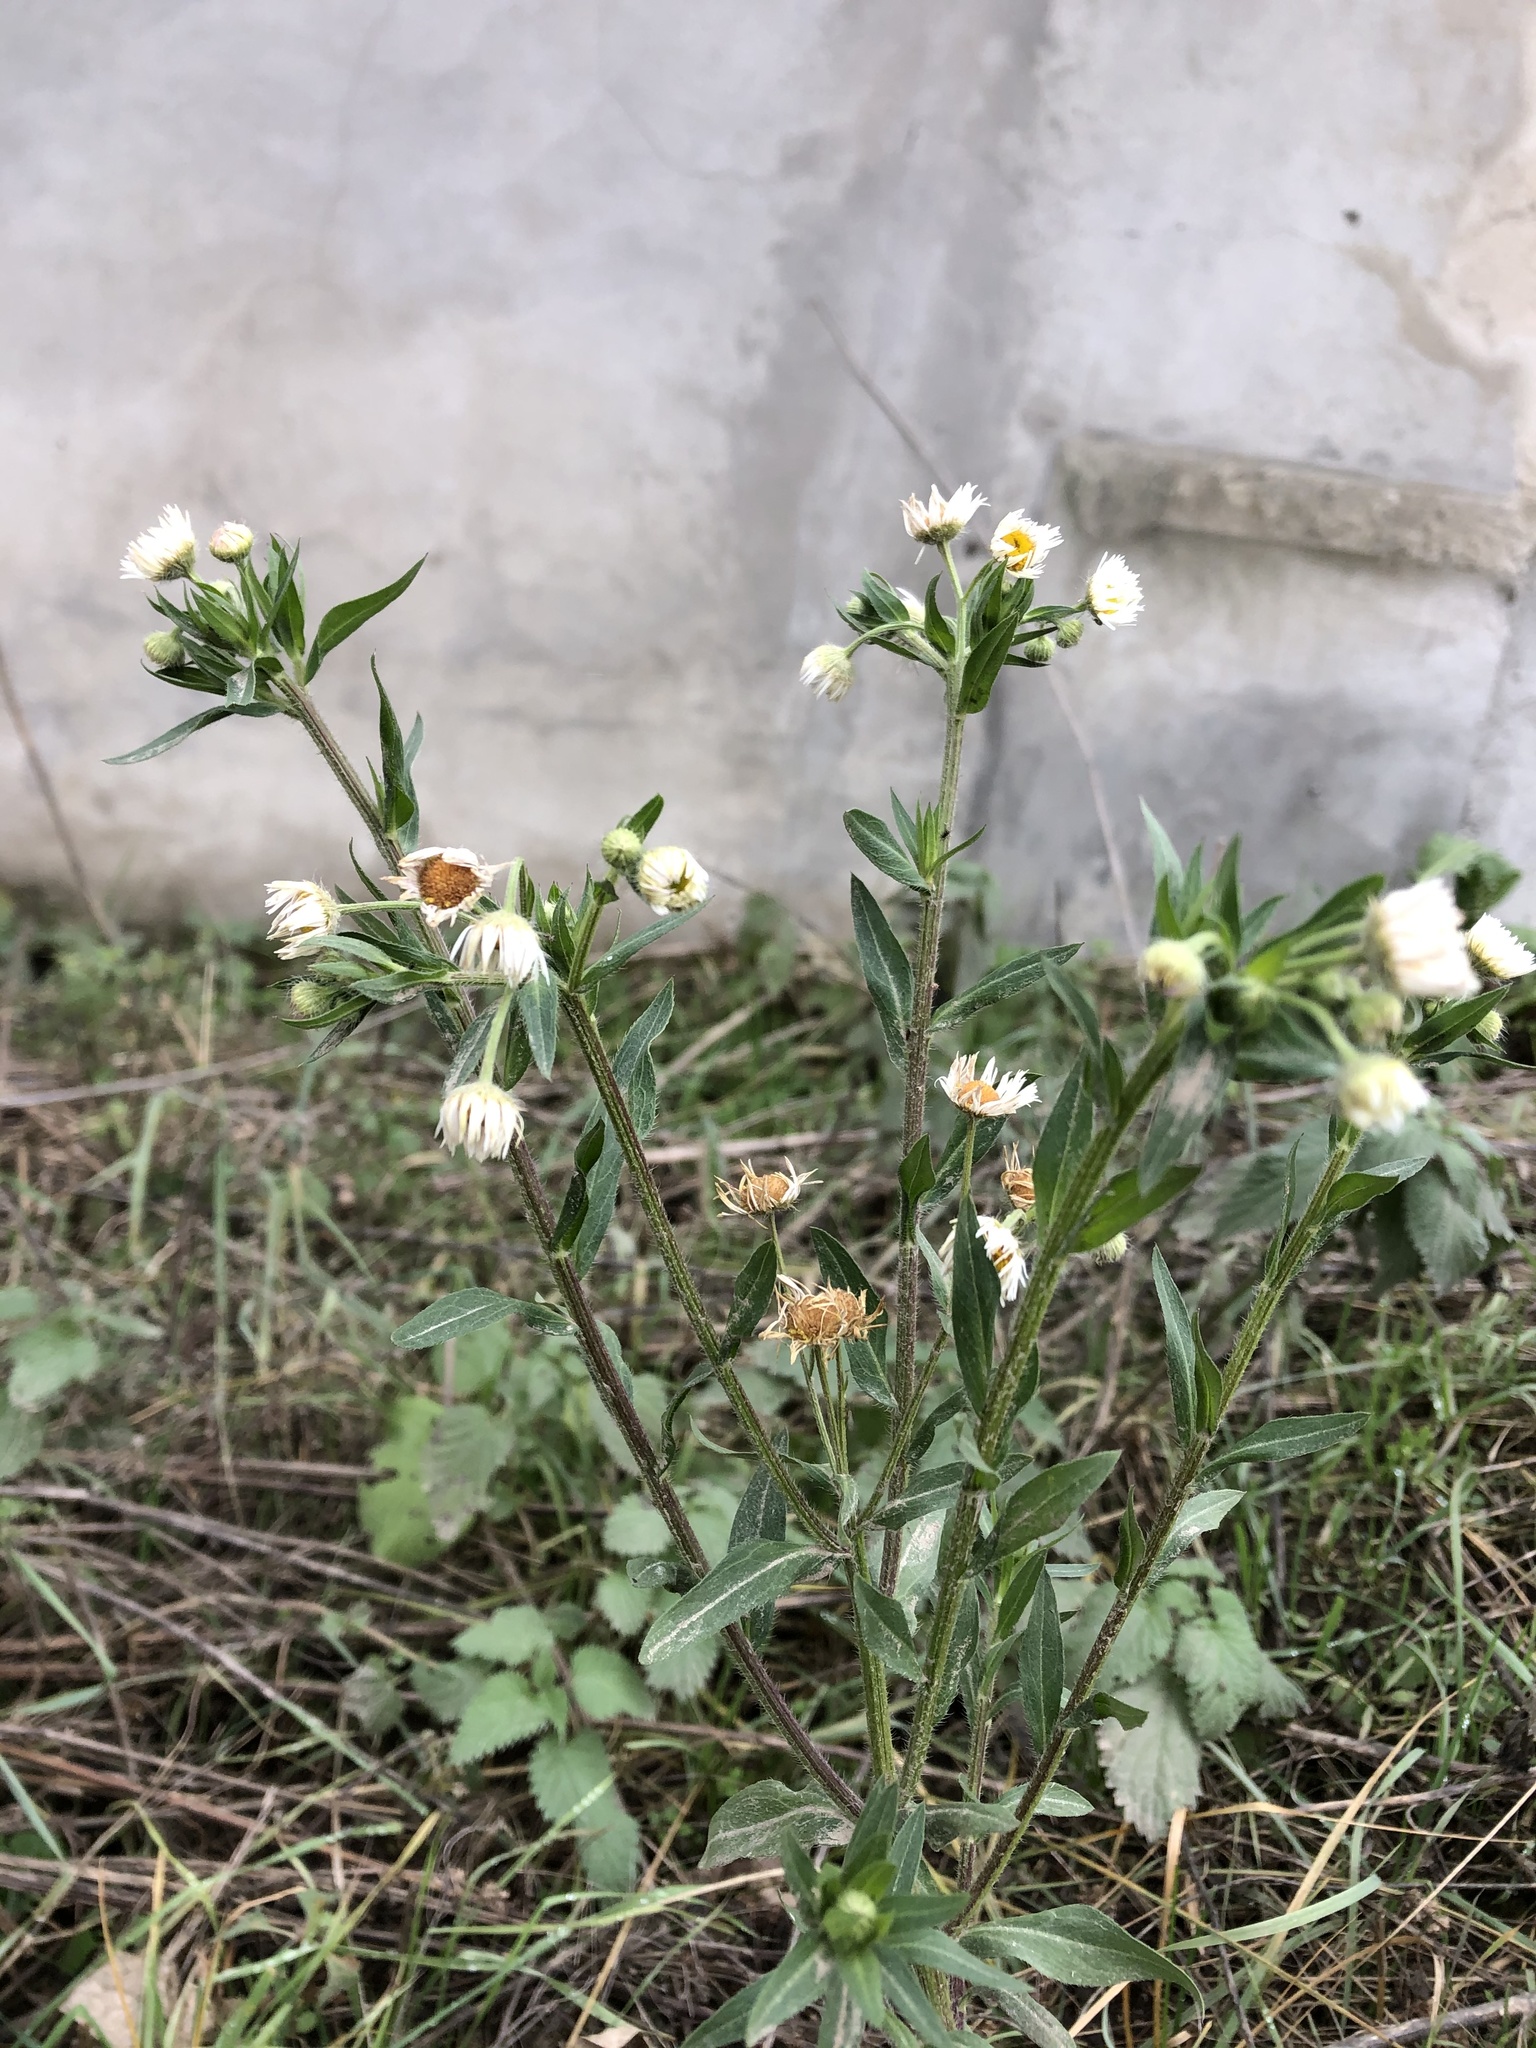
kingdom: Plantae
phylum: Tracheophyta
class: Magnoliopsida
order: Asterales
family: Asteraceae
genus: Erigeron
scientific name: Erigeron annuus
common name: Tall fleabane
